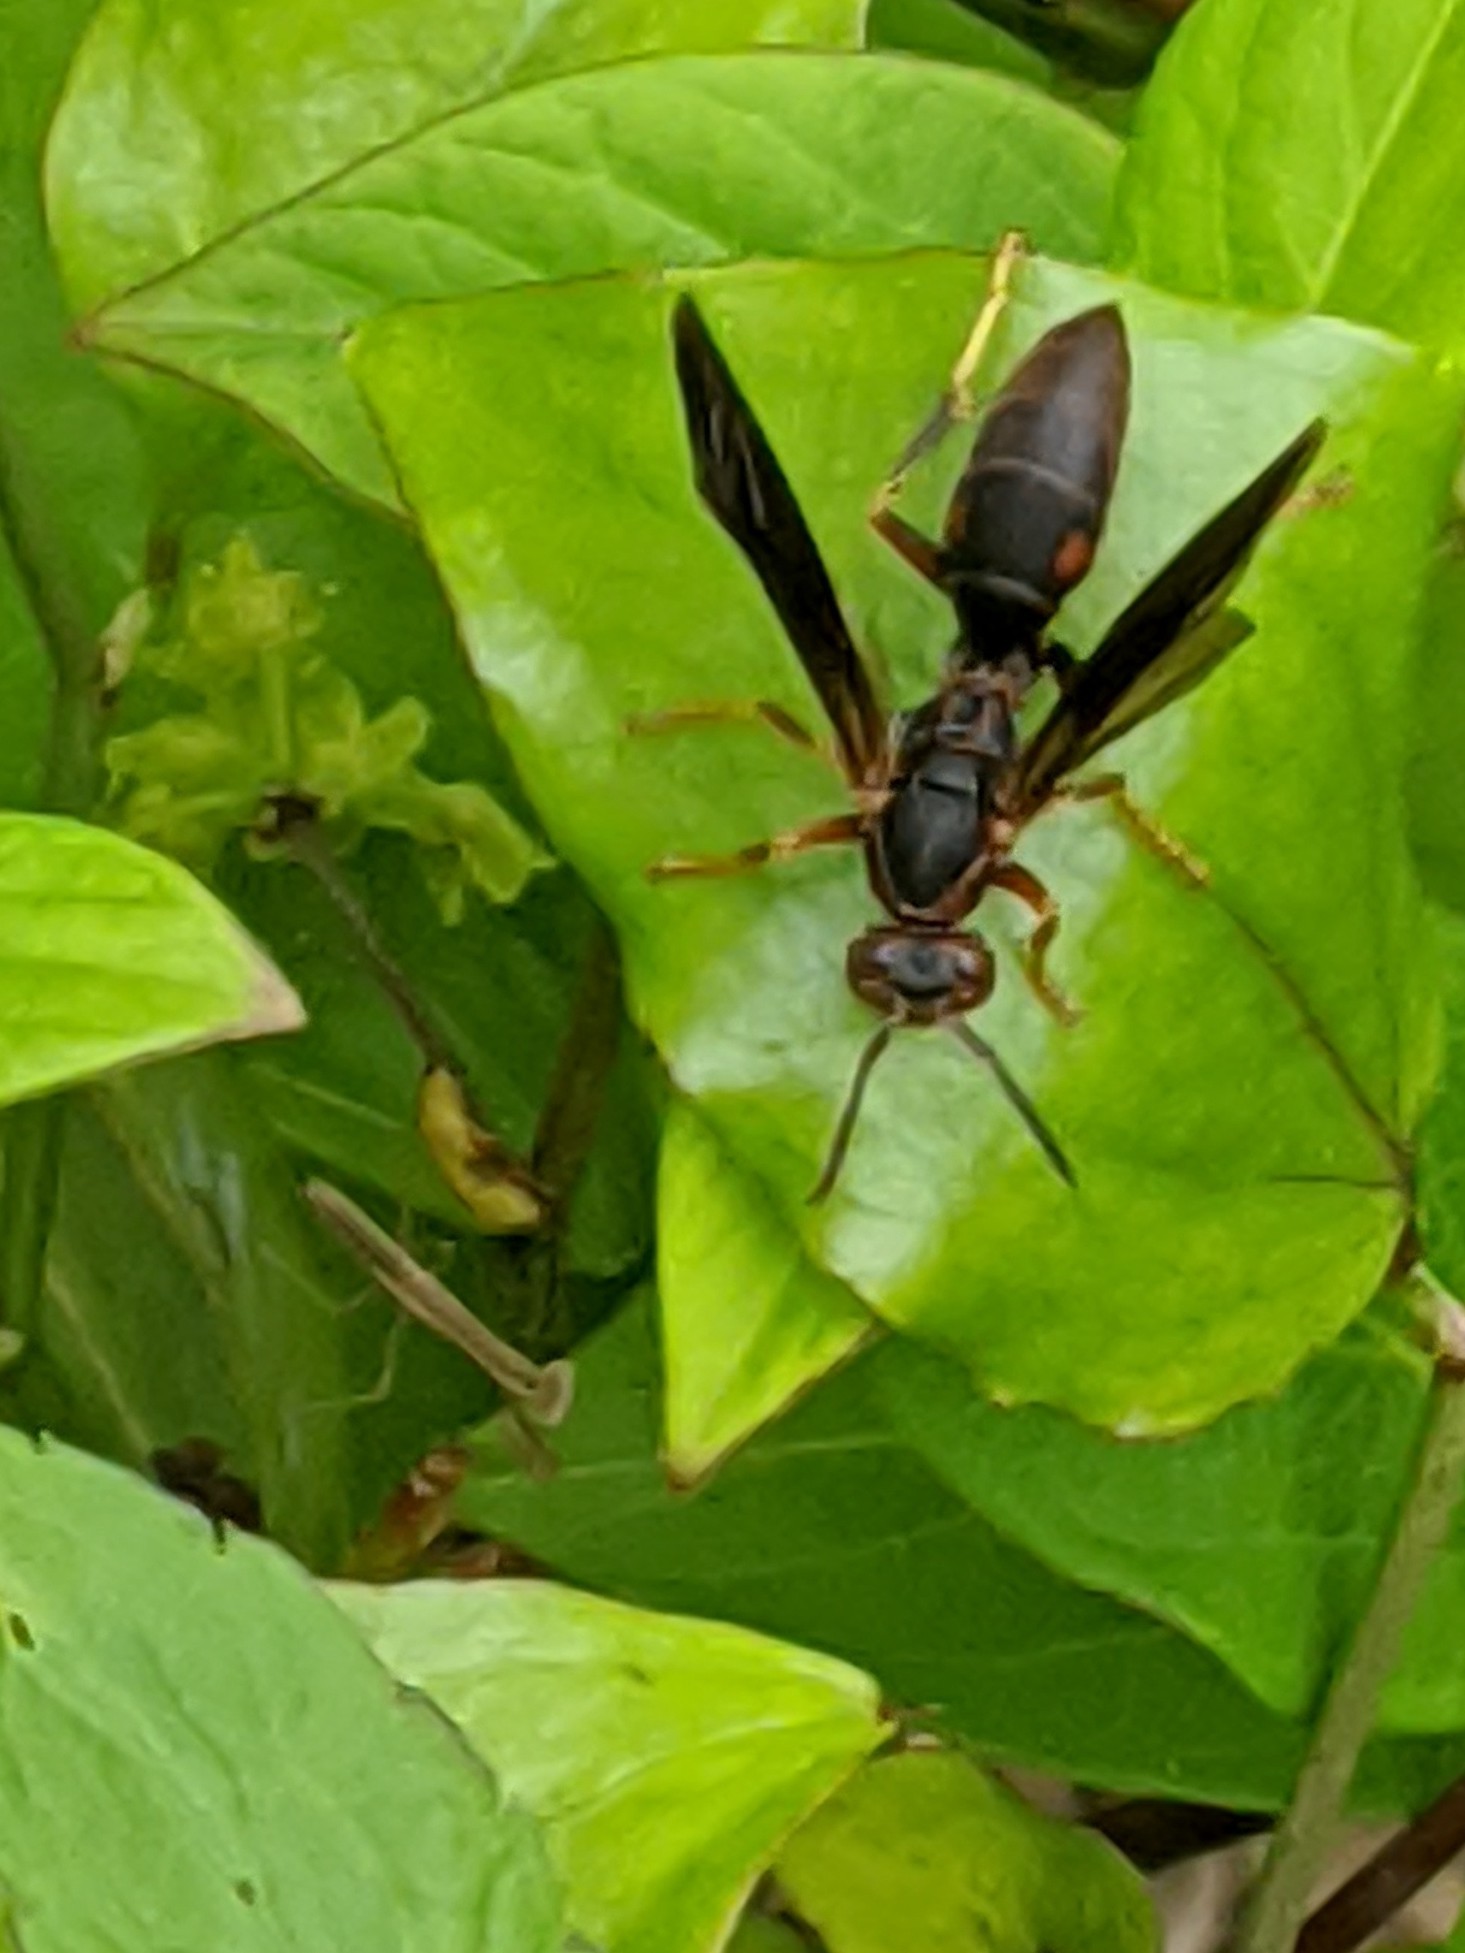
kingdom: Animalia
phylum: Arthropoda
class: Insecta
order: Hymenoptera
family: Eumenidae
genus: Polistes
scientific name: Polistes fuscatus
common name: Dark paper wasp
